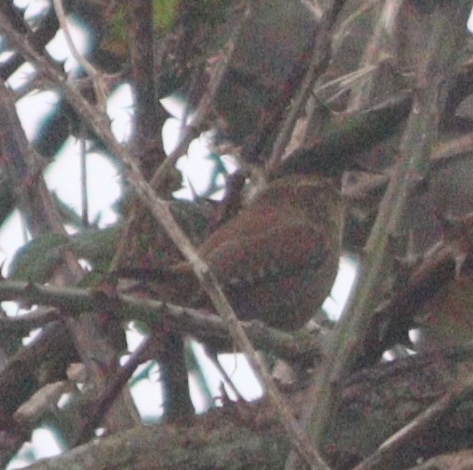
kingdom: Animalia
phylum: Chordata
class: Aves
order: Passeriformes
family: Troglodytidae
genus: Troglodytes
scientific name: Troglodytes troglodytes
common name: Eurasian wren
